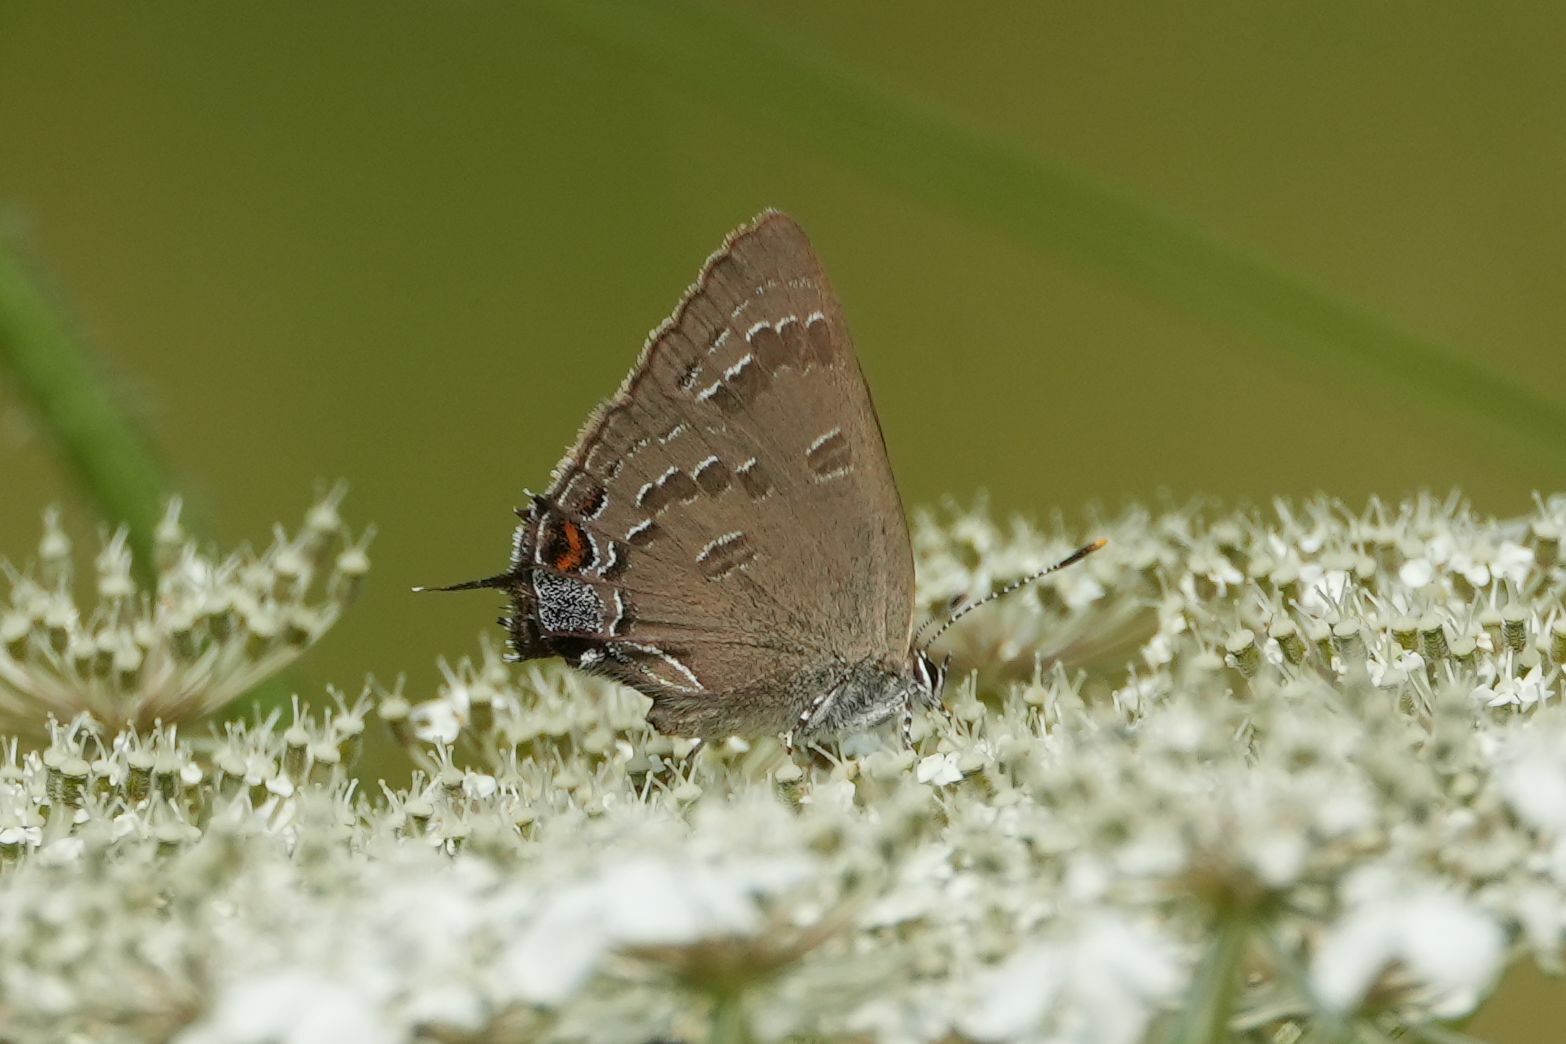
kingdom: Animalia
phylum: Arthropoda
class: Insecta
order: Lepidoptera
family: Lycaenidae
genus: Satyrium
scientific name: Satyrium calanus
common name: Banded hairstreak
